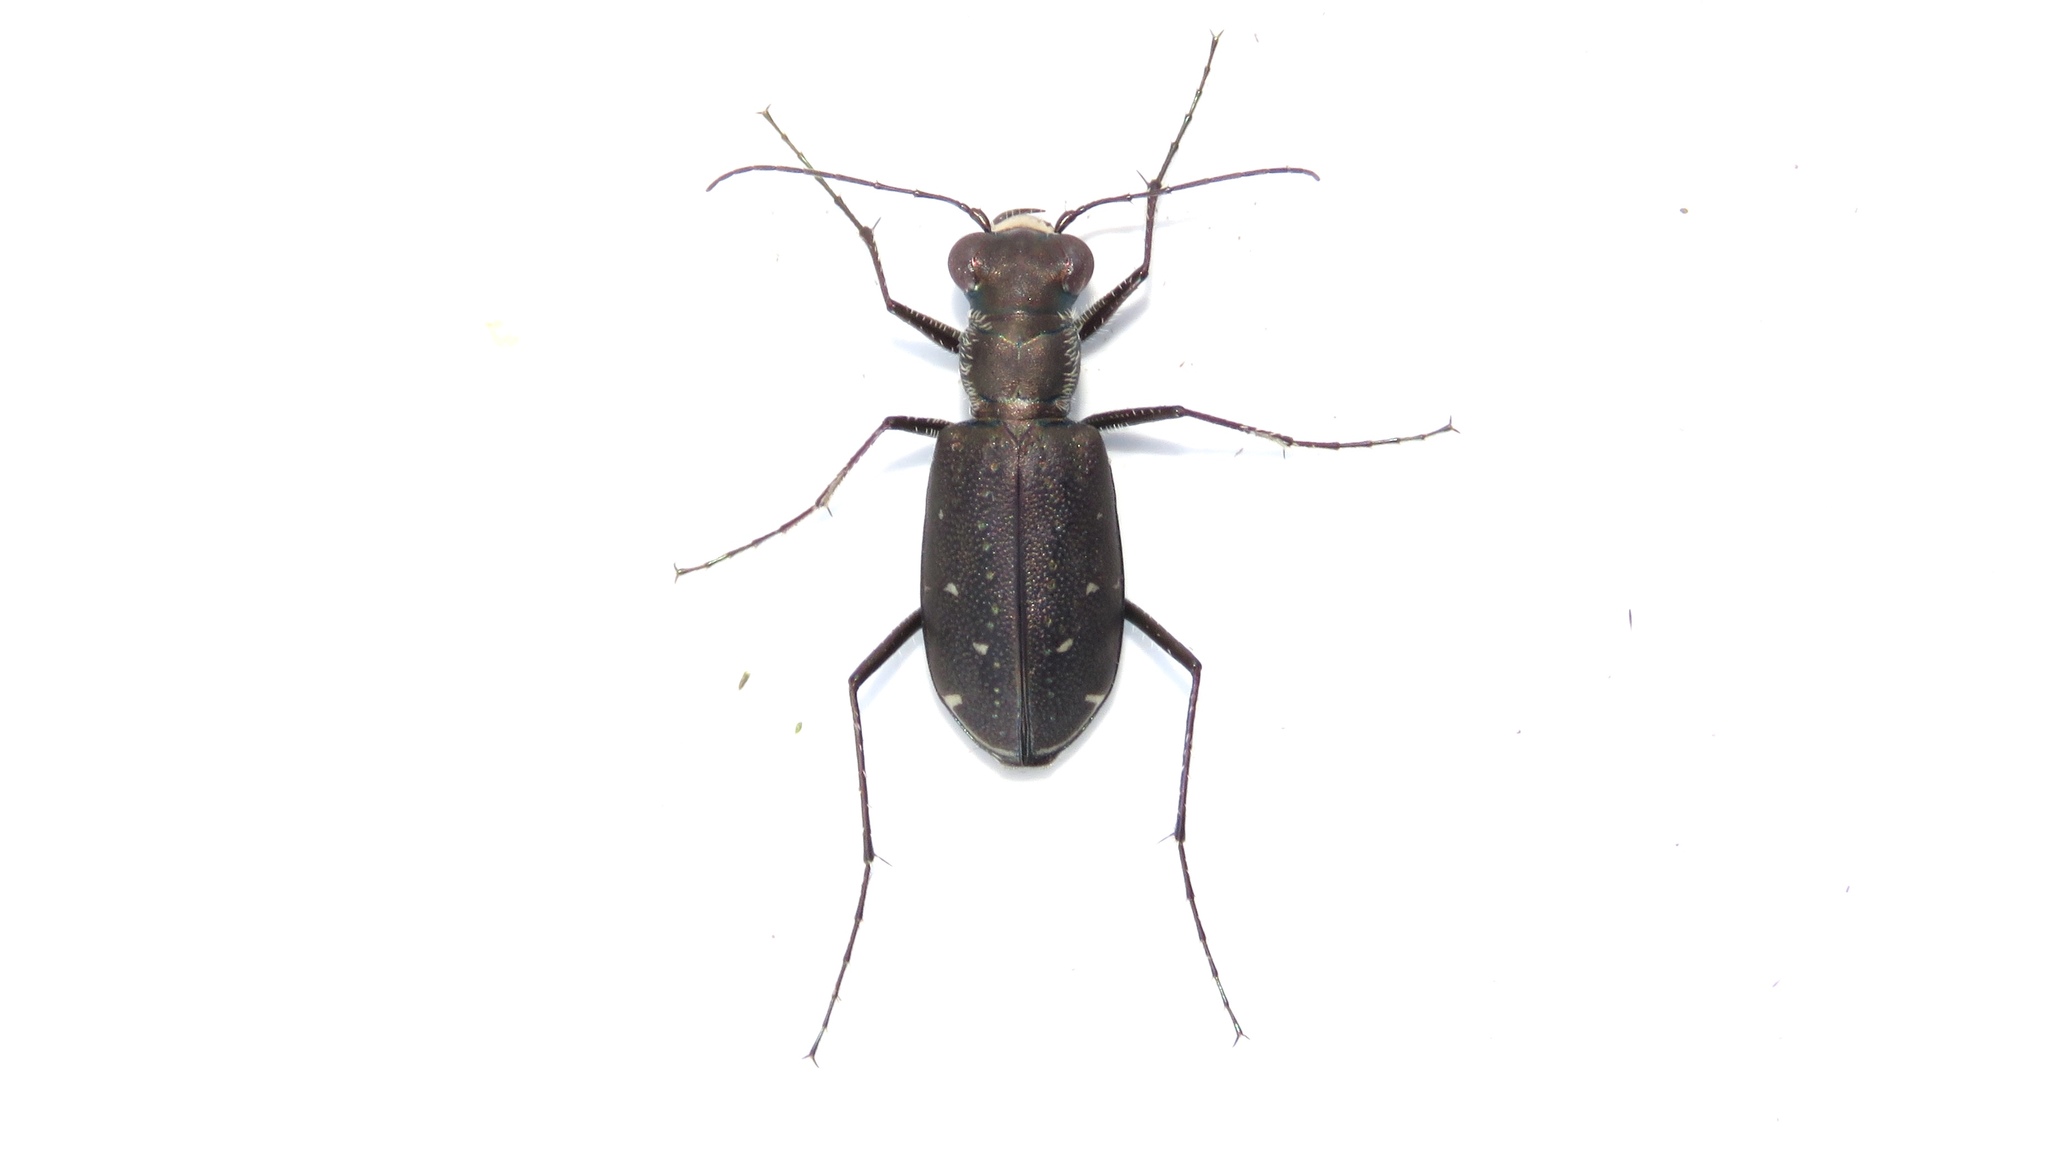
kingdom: Animalia
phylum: Arthropoda
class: Insecta
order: Coleoptera
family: Carabidae
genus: Cicindela
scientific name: Cicindela punctulata
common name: Punctured tiger beetle
